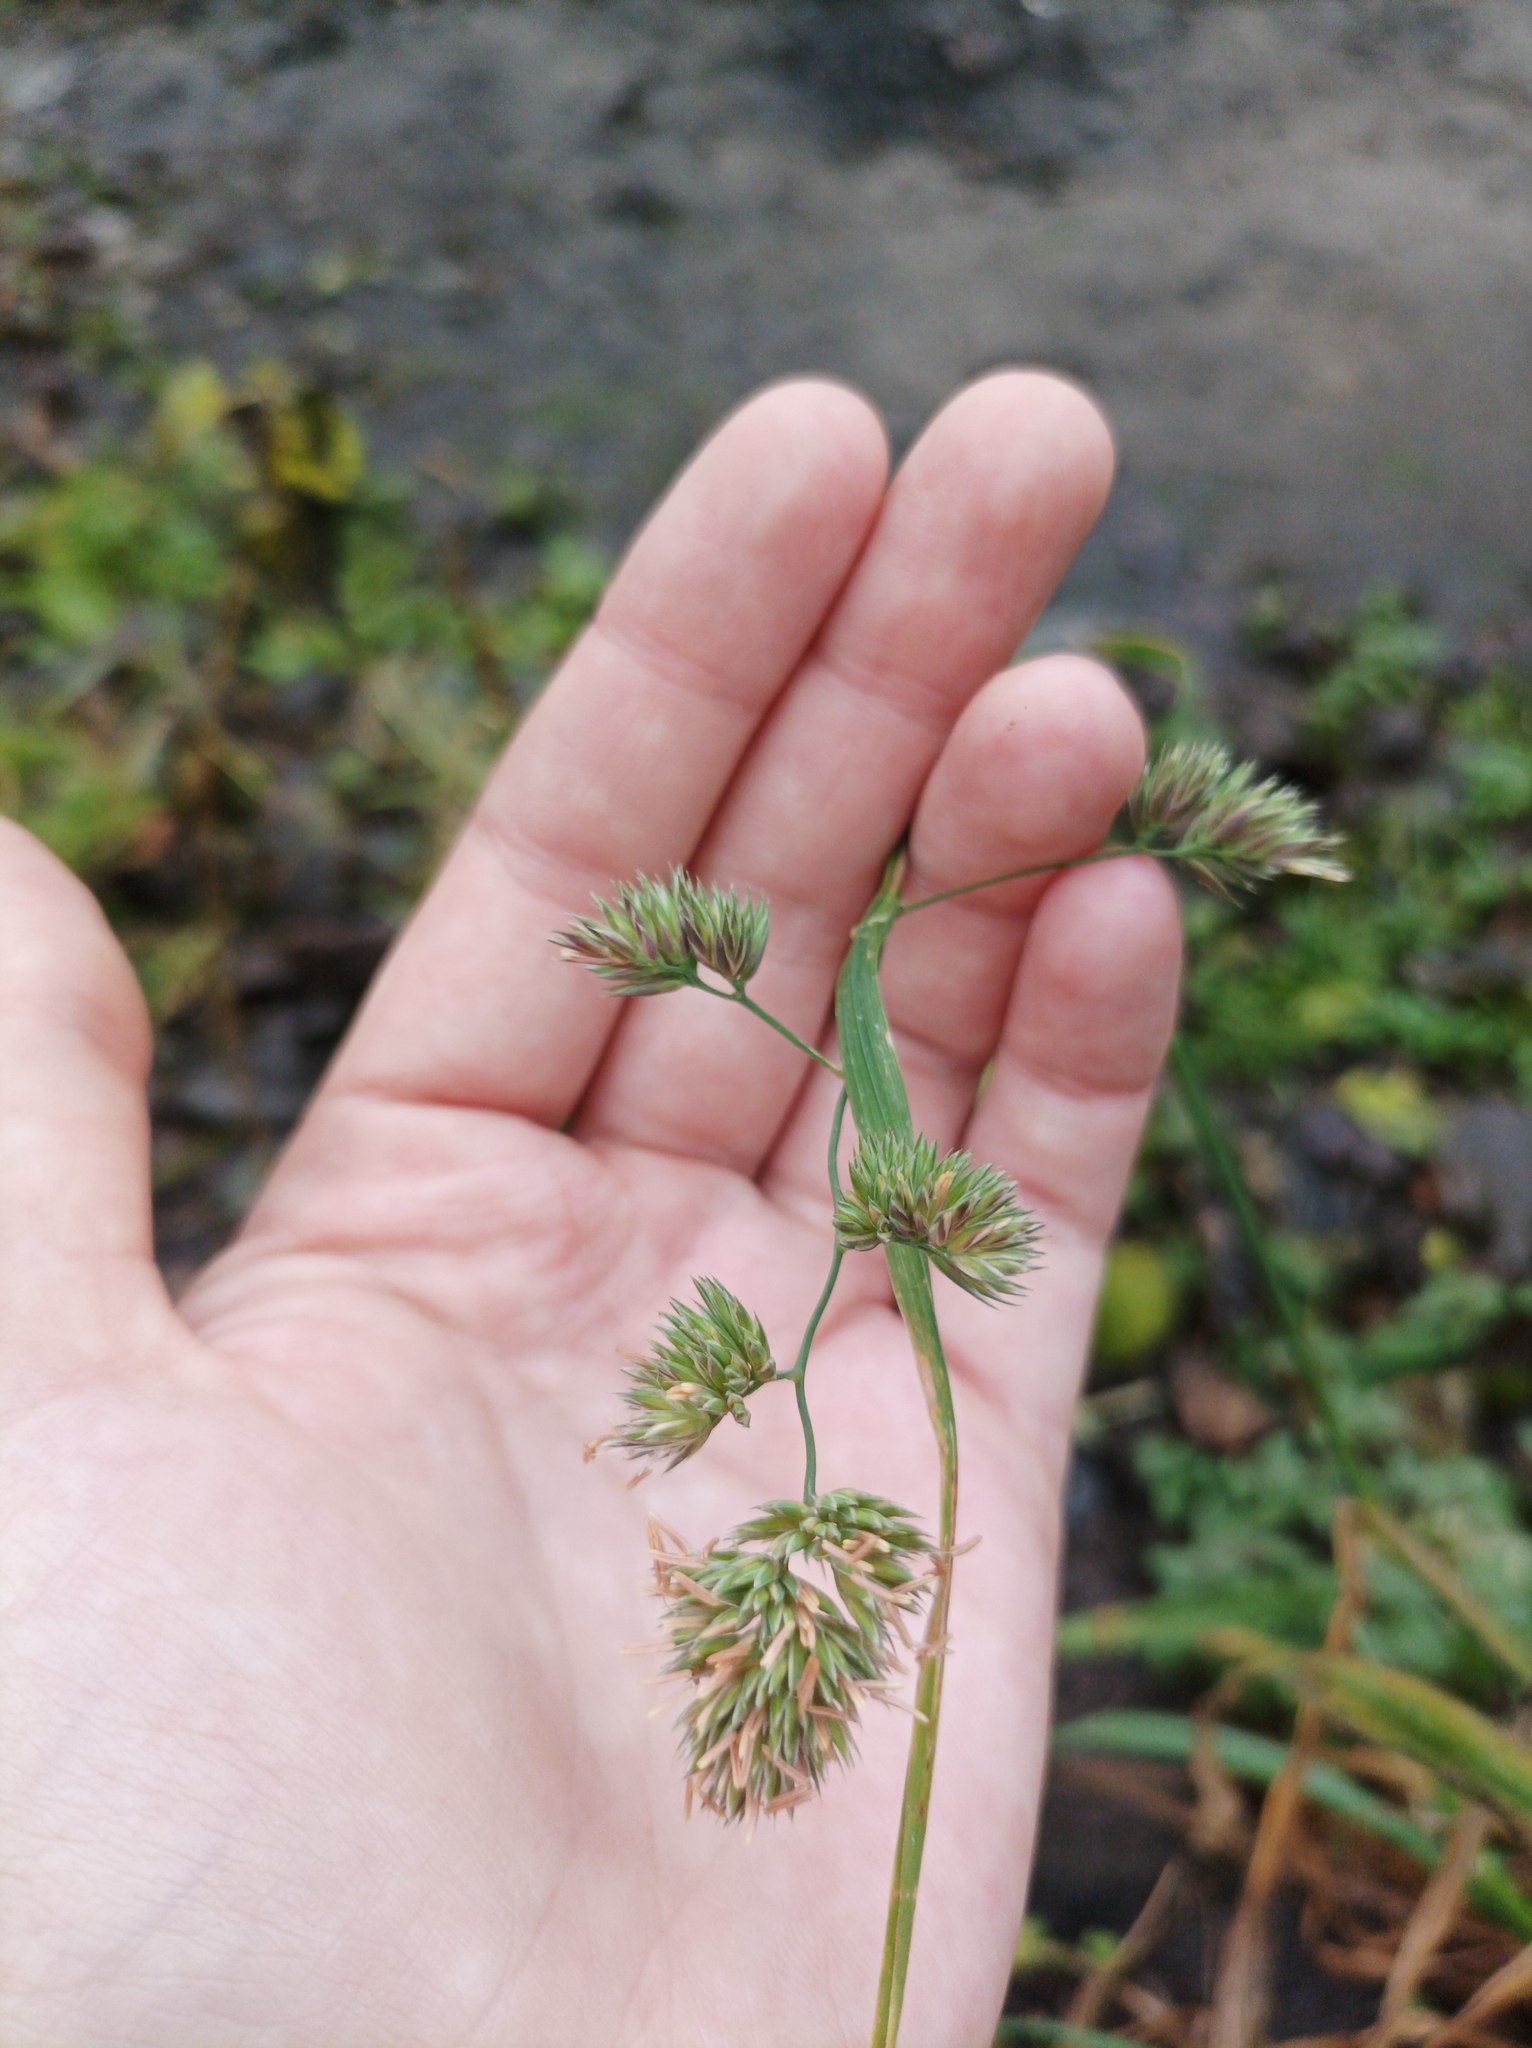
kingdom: Plantae
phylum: Tracheophyta
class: Liliopsida
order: Poales
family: Poaceae
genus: Dactylis
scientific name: Dactylis glomerata
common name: Orchardgrass
